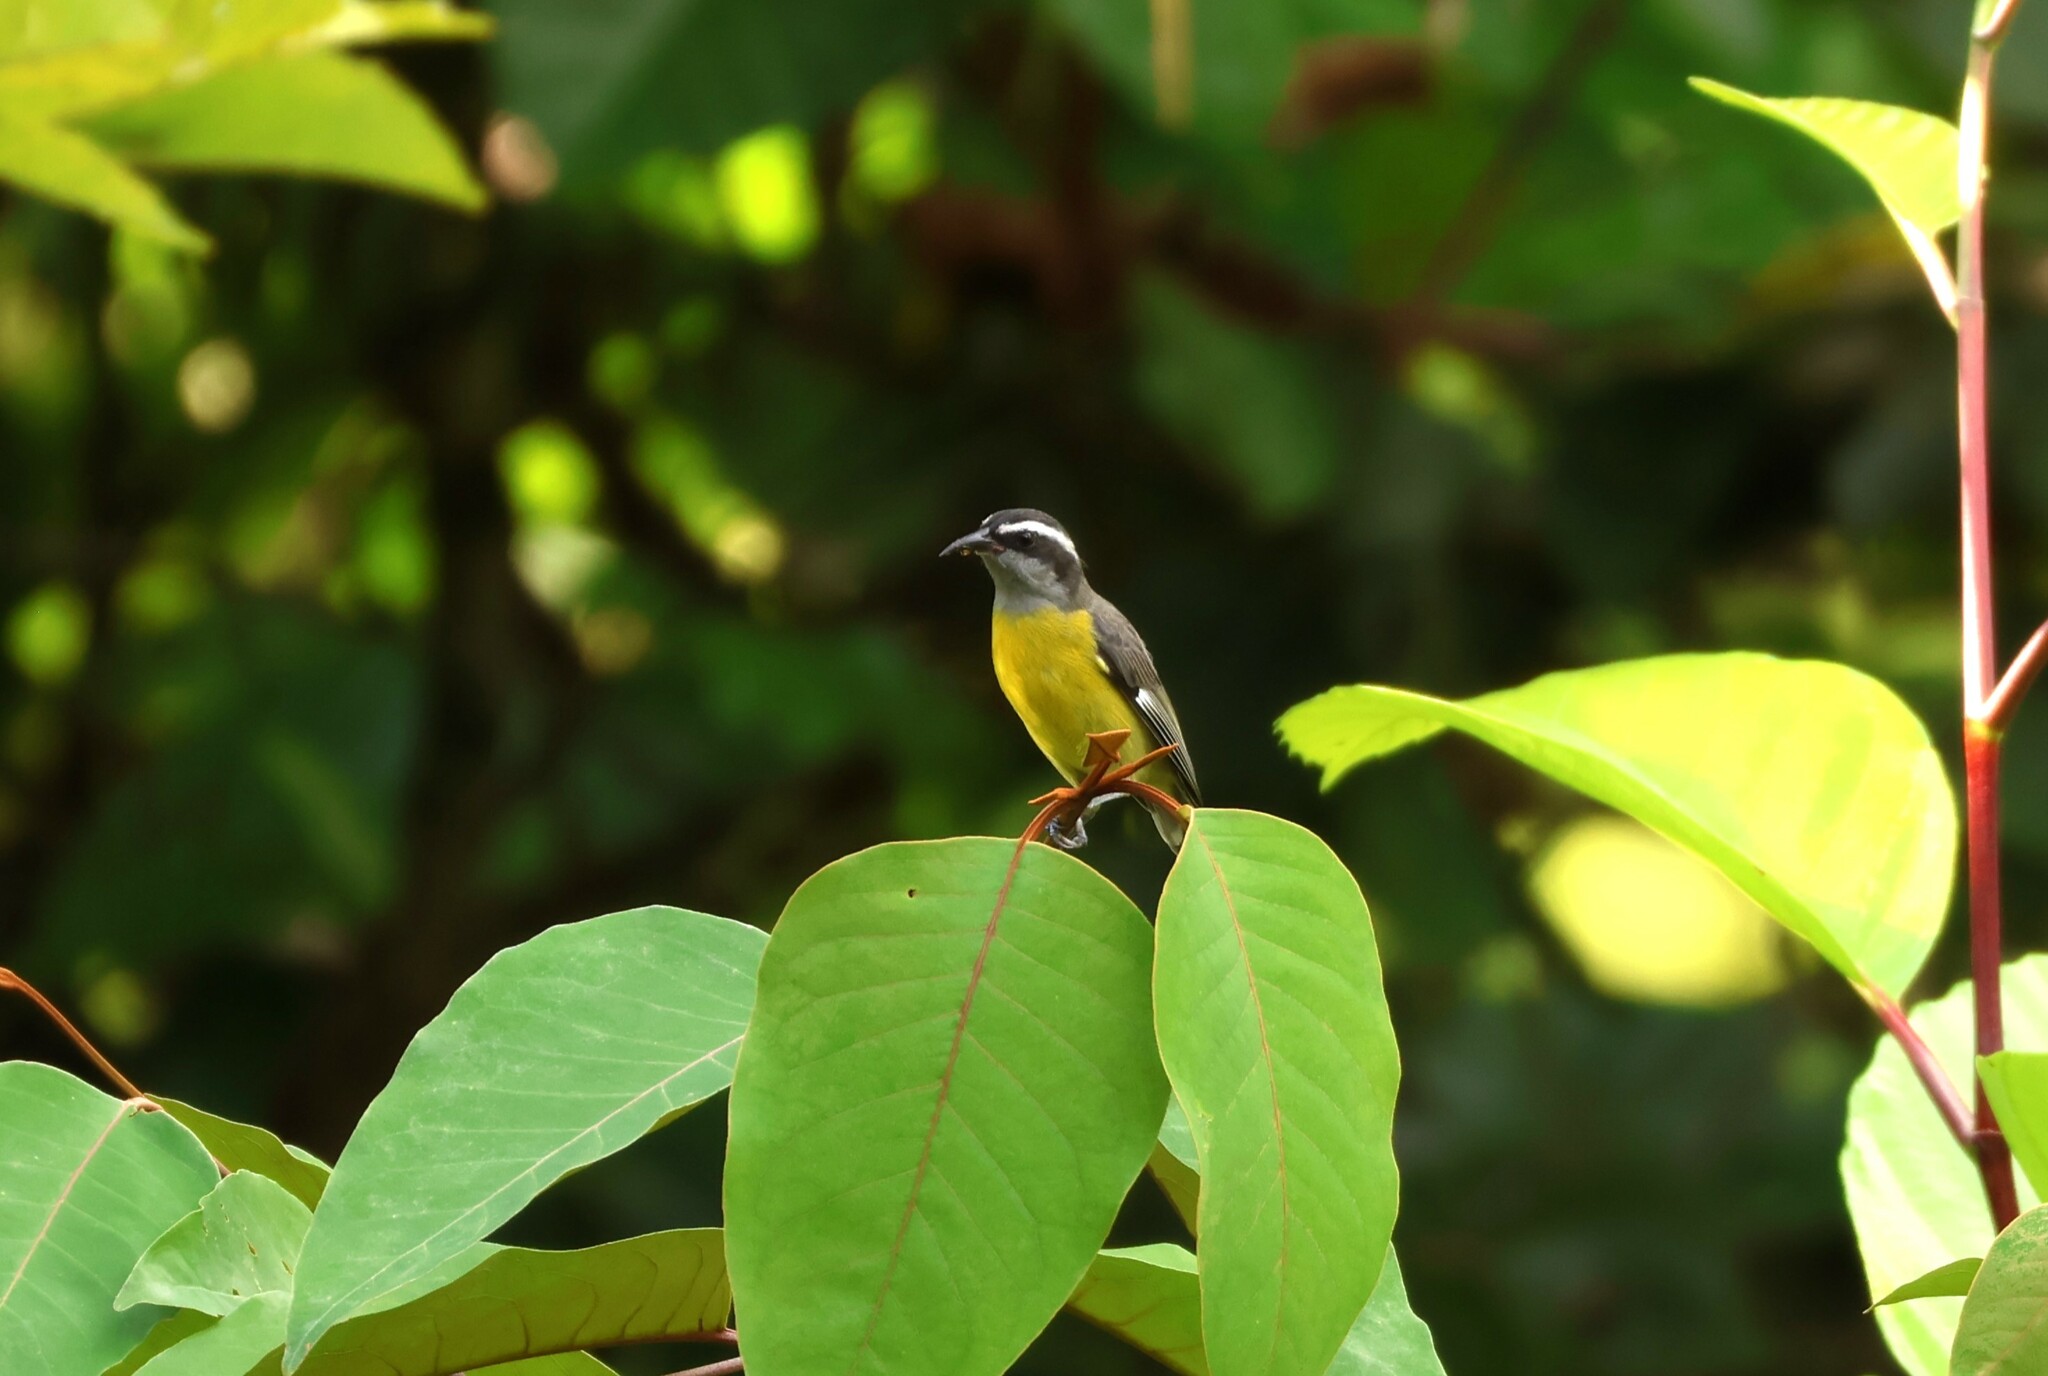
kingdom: Animalia
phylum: Chordata
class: Aves
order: Passeriformes
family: Thraupidae
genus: Coereba
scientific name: Coereba flaveola
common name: Bananaquit
